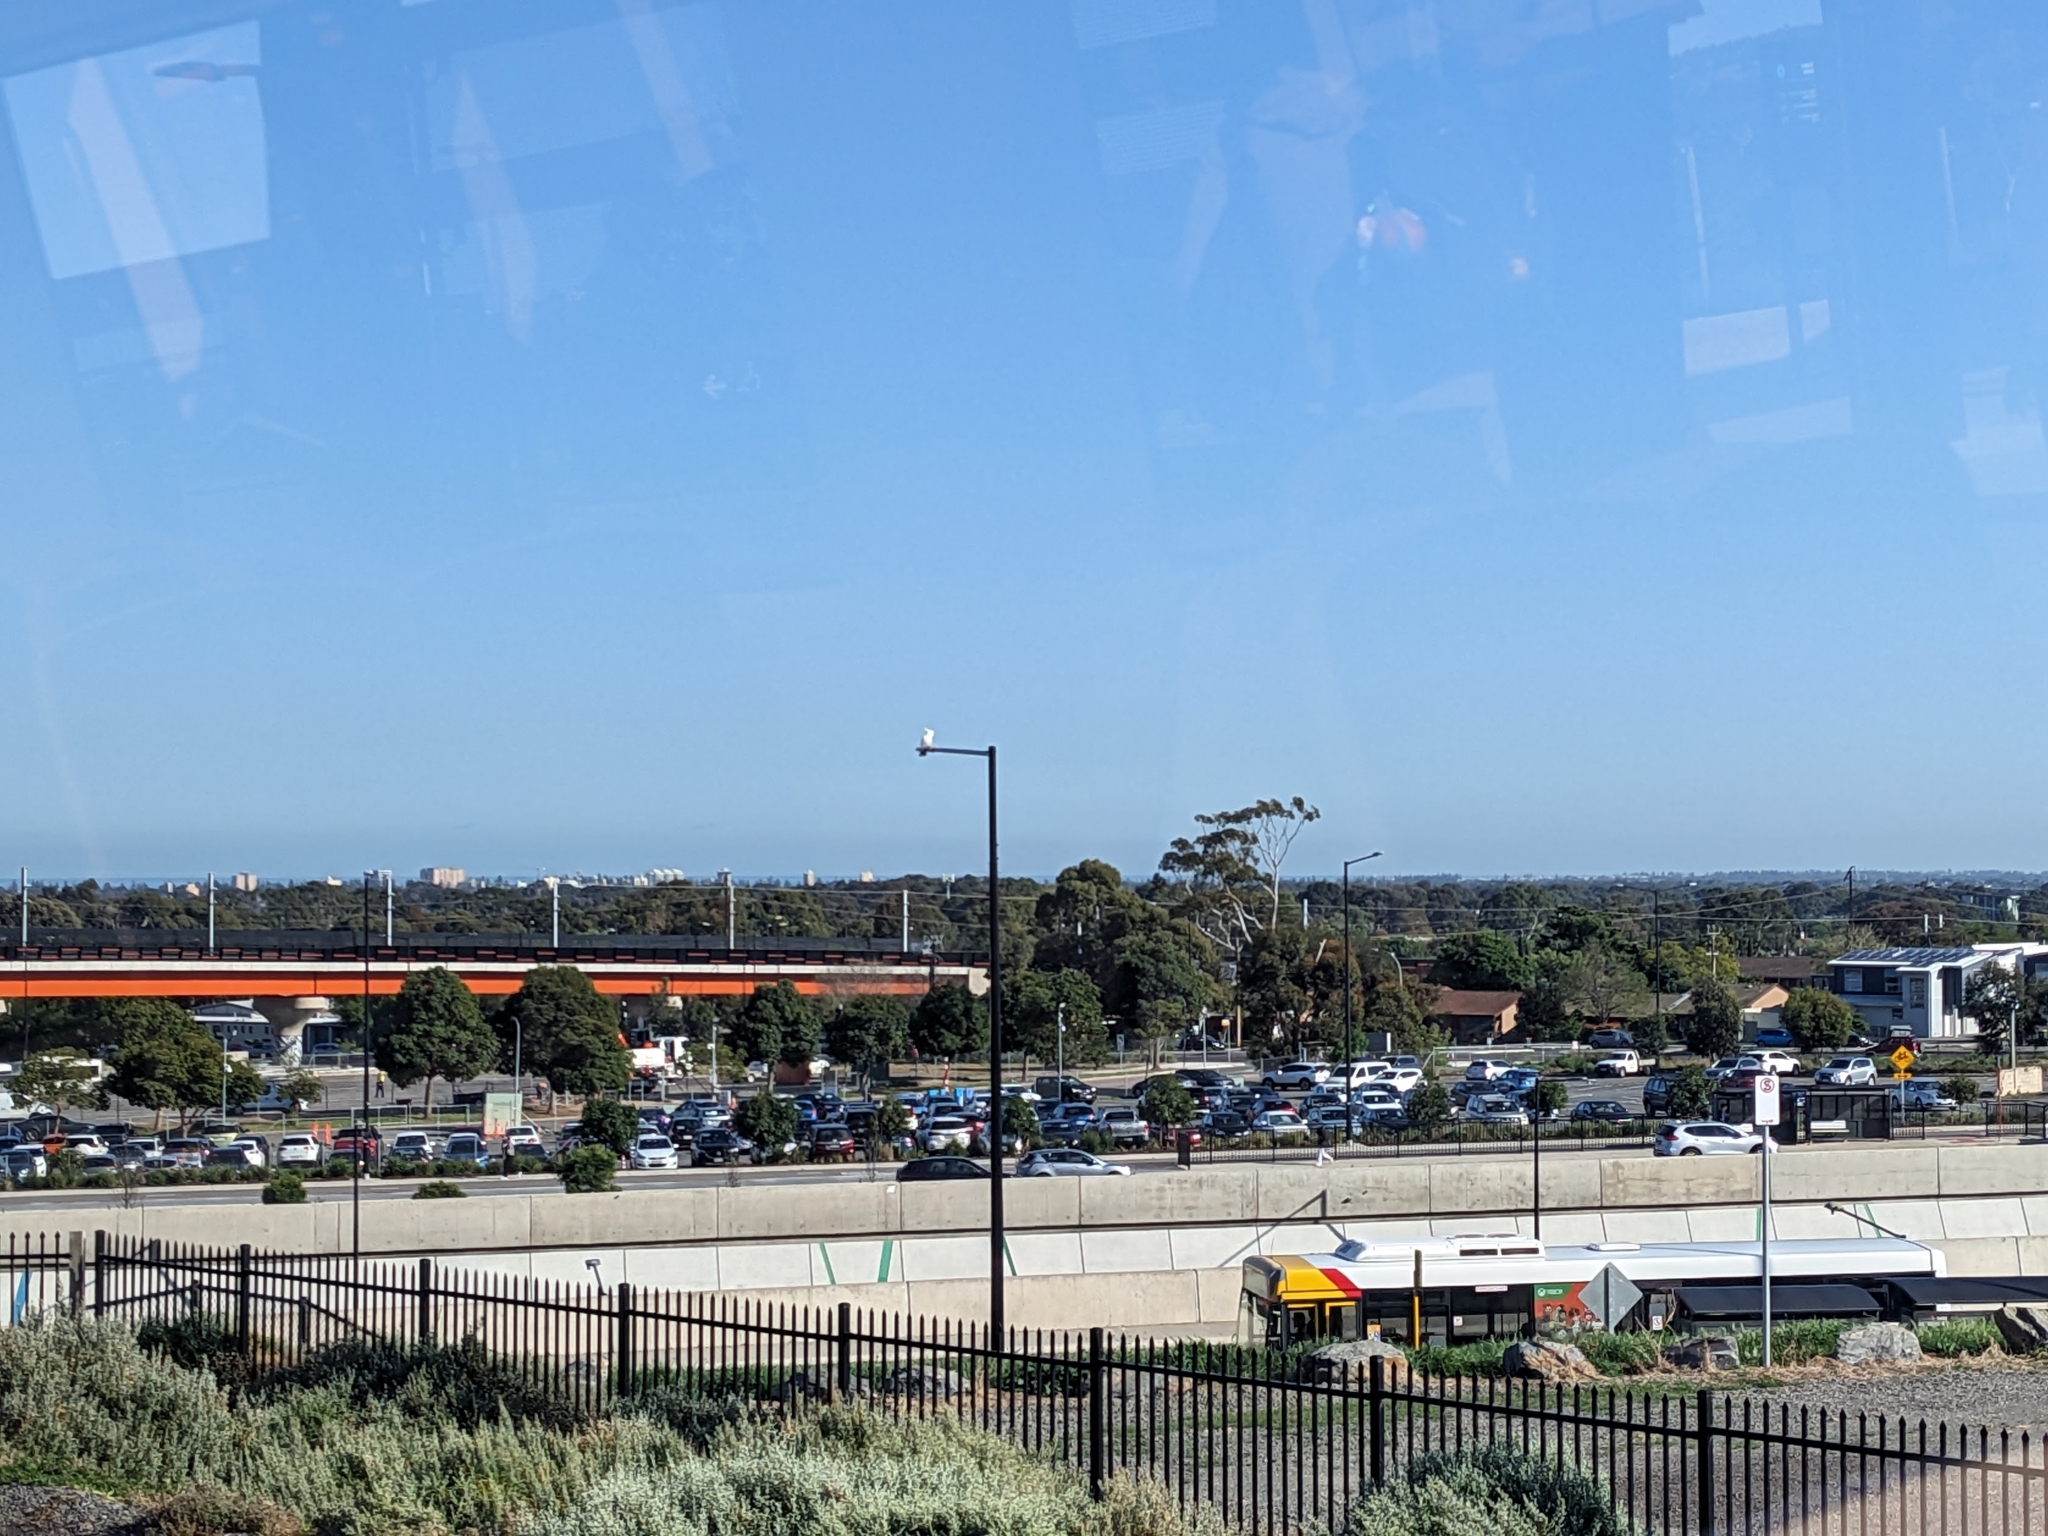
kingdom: Animalia
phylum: Chordata
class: Aves
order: Psittaciformes
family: Psittacidae
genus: Cacatua
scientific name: Cacatua galerita
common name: Sulphur-crested cockatoo
